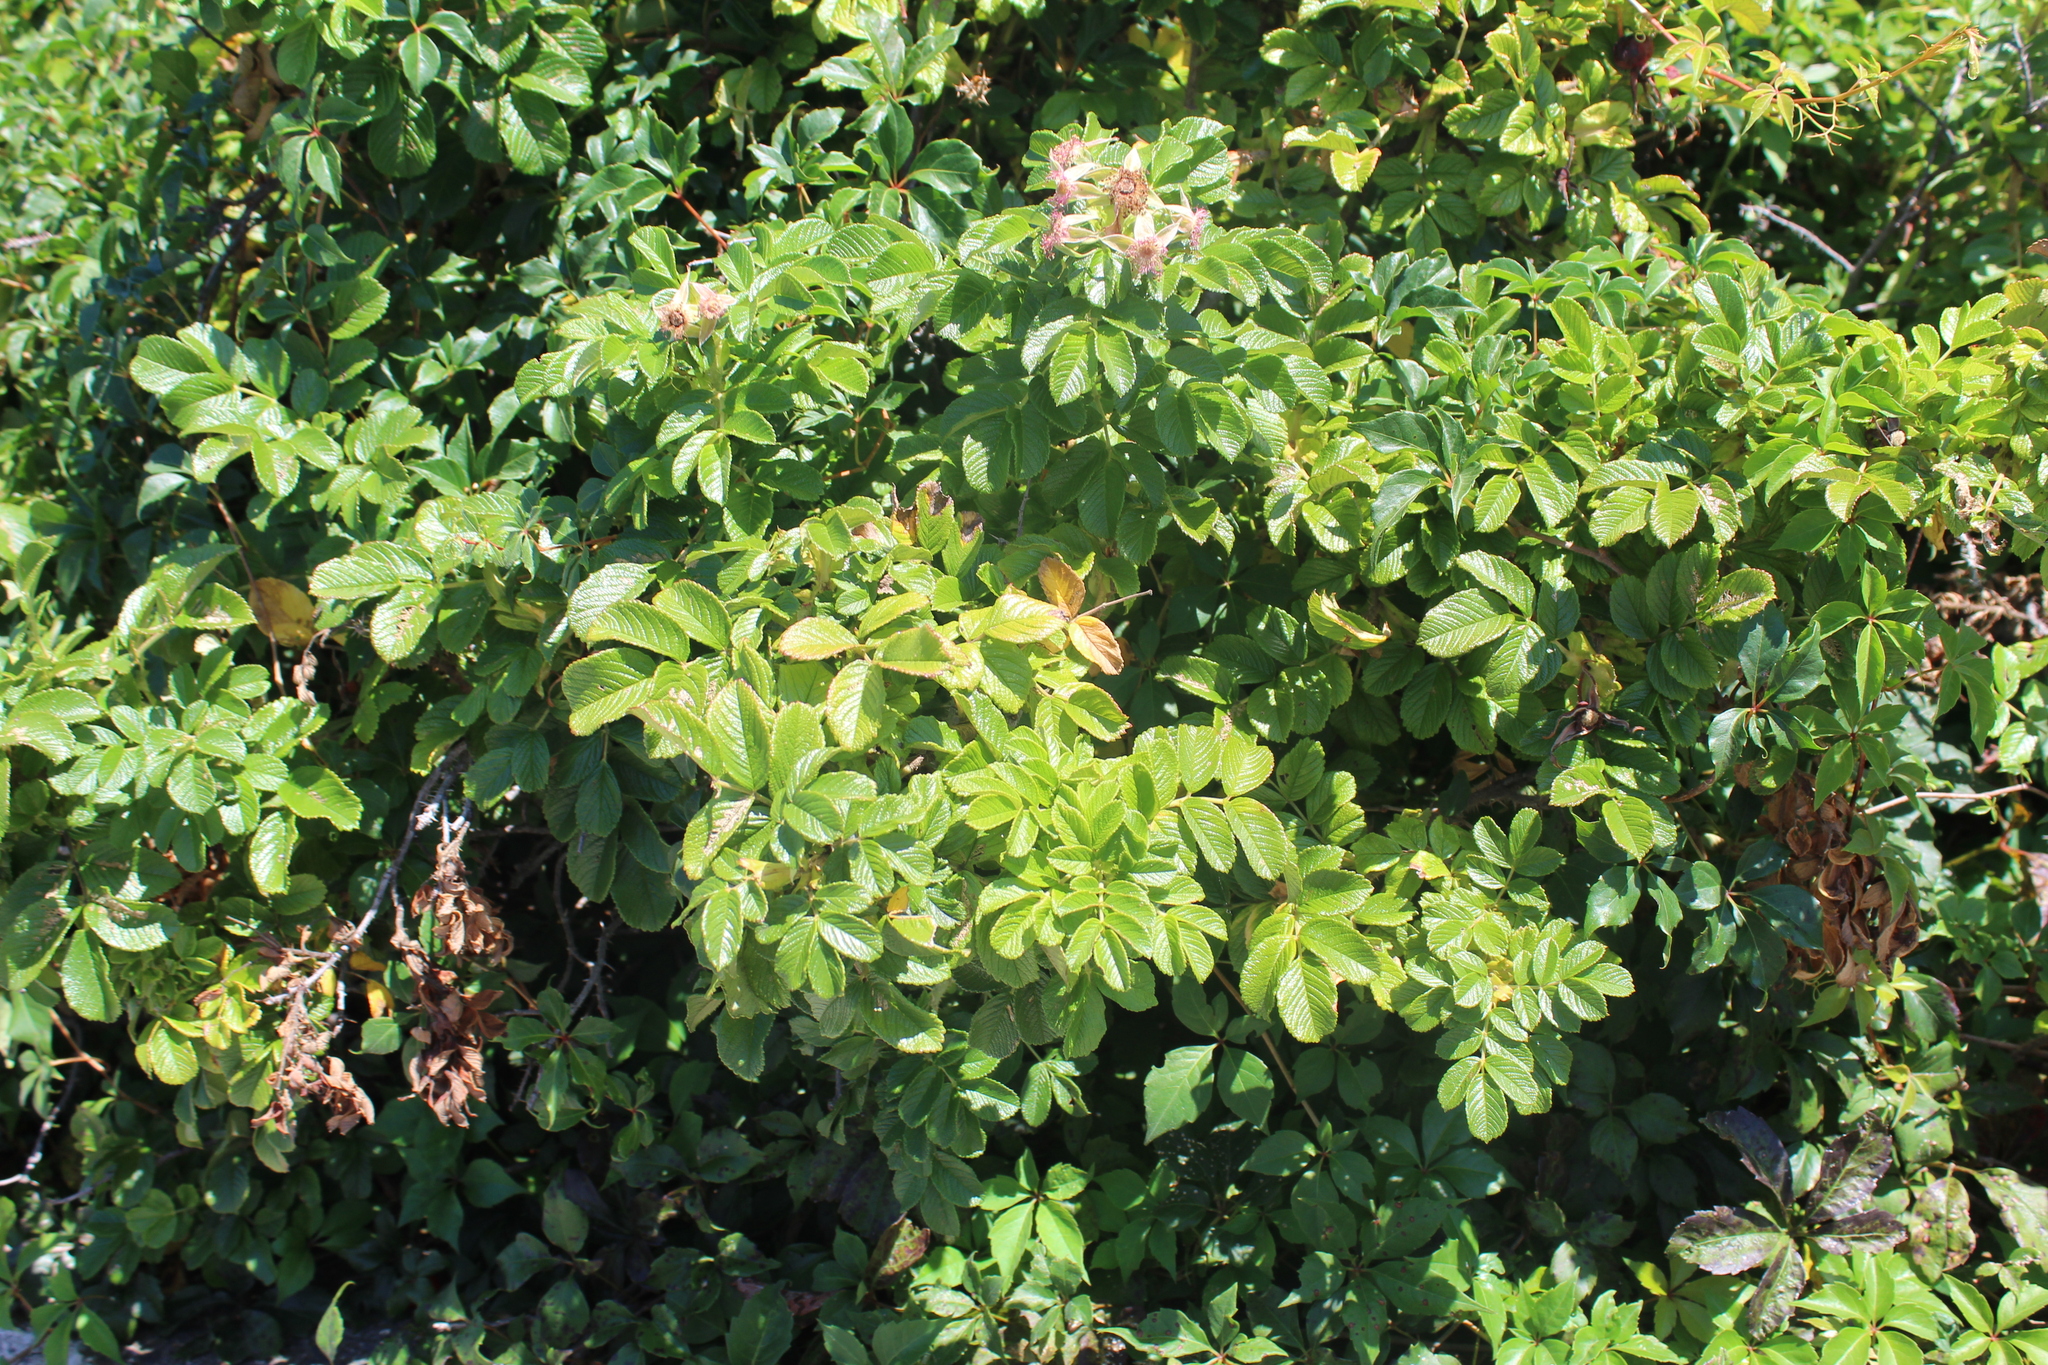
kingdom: Plantae
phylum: Tracheophyta
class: Magnoliopsida
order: Rosales
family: Rosaceae
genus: Rosa
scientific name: Rosa rugosa
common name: Japanese rose
